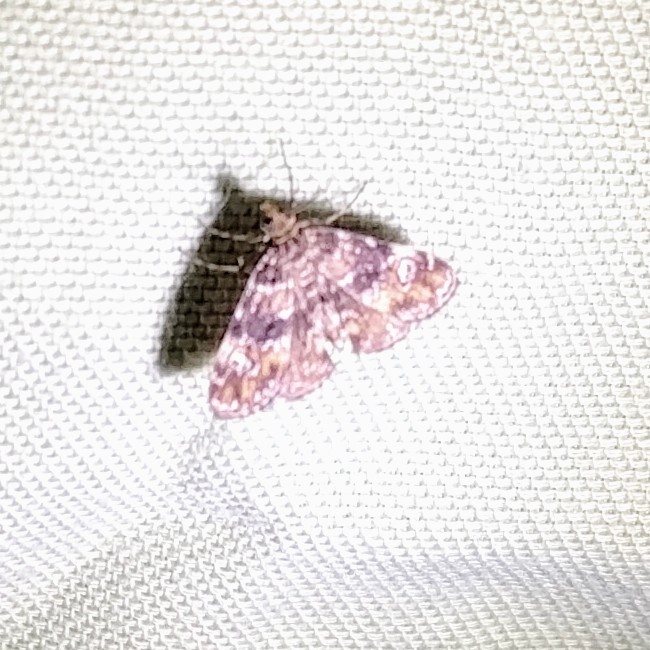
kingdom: Animalia
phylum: Arthropoda
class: Insecta
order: Lepidoptera
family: Crambidae
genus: Elophila
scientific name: Elophila obliteralis
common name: Waterlily leafcutter moth
